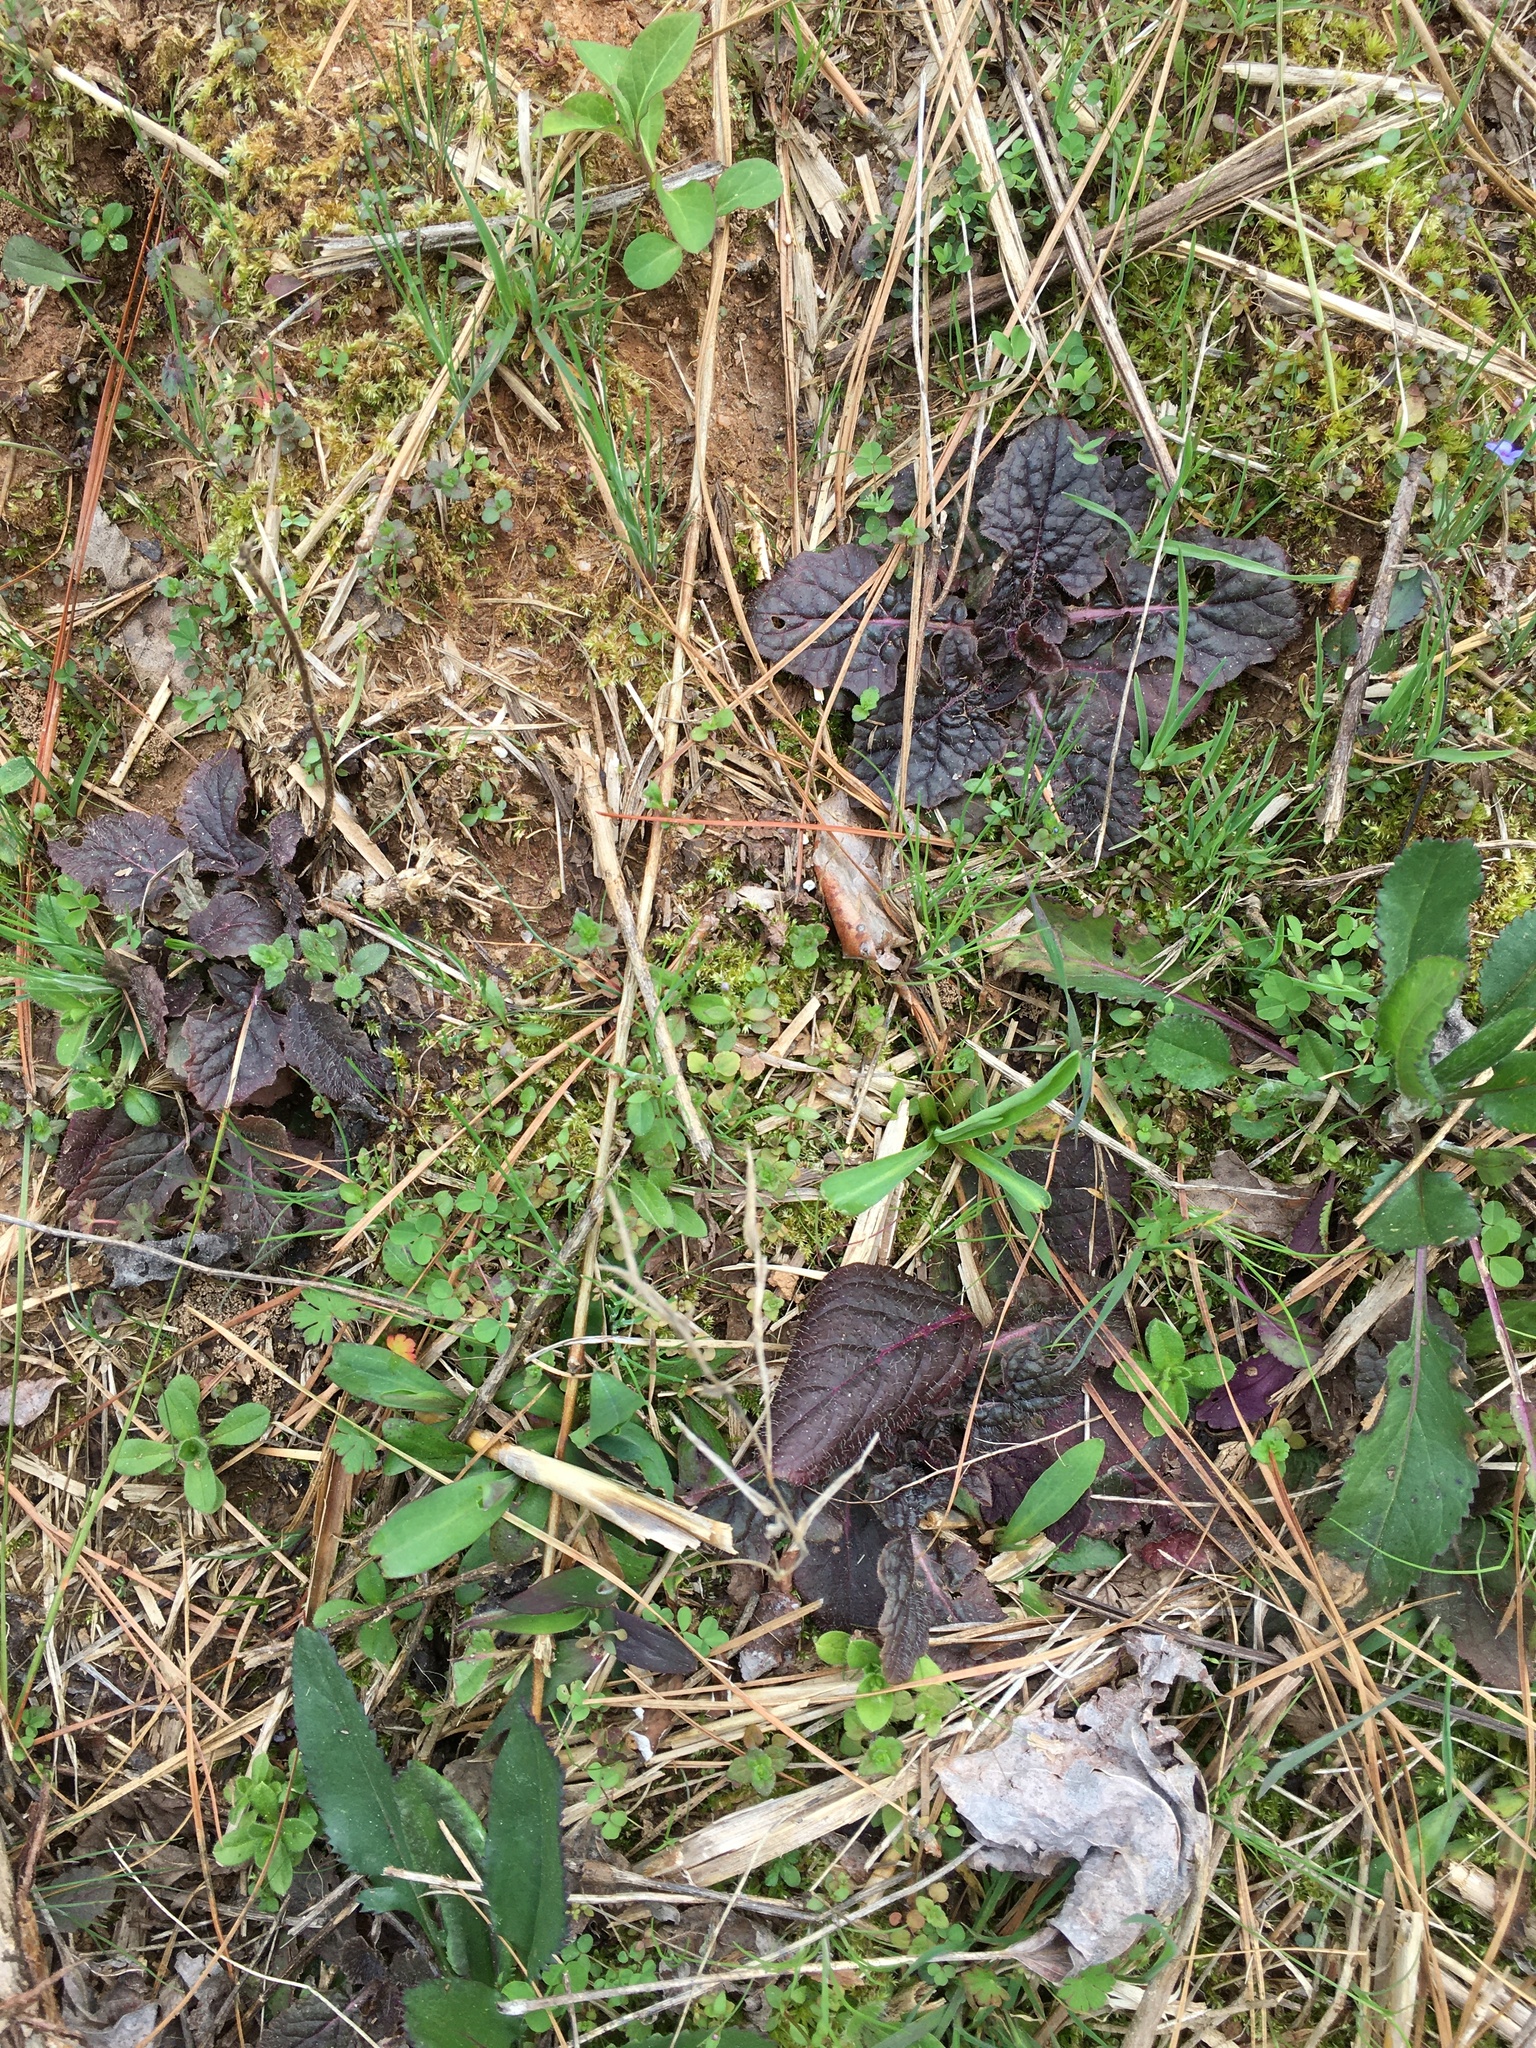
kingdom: Plantae
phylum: Tracheophyta
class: Magnoliopsida
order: Lamiales
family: Lamiaceae
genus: Salvia
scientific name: Salvia lyrata
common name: Cancerweed
